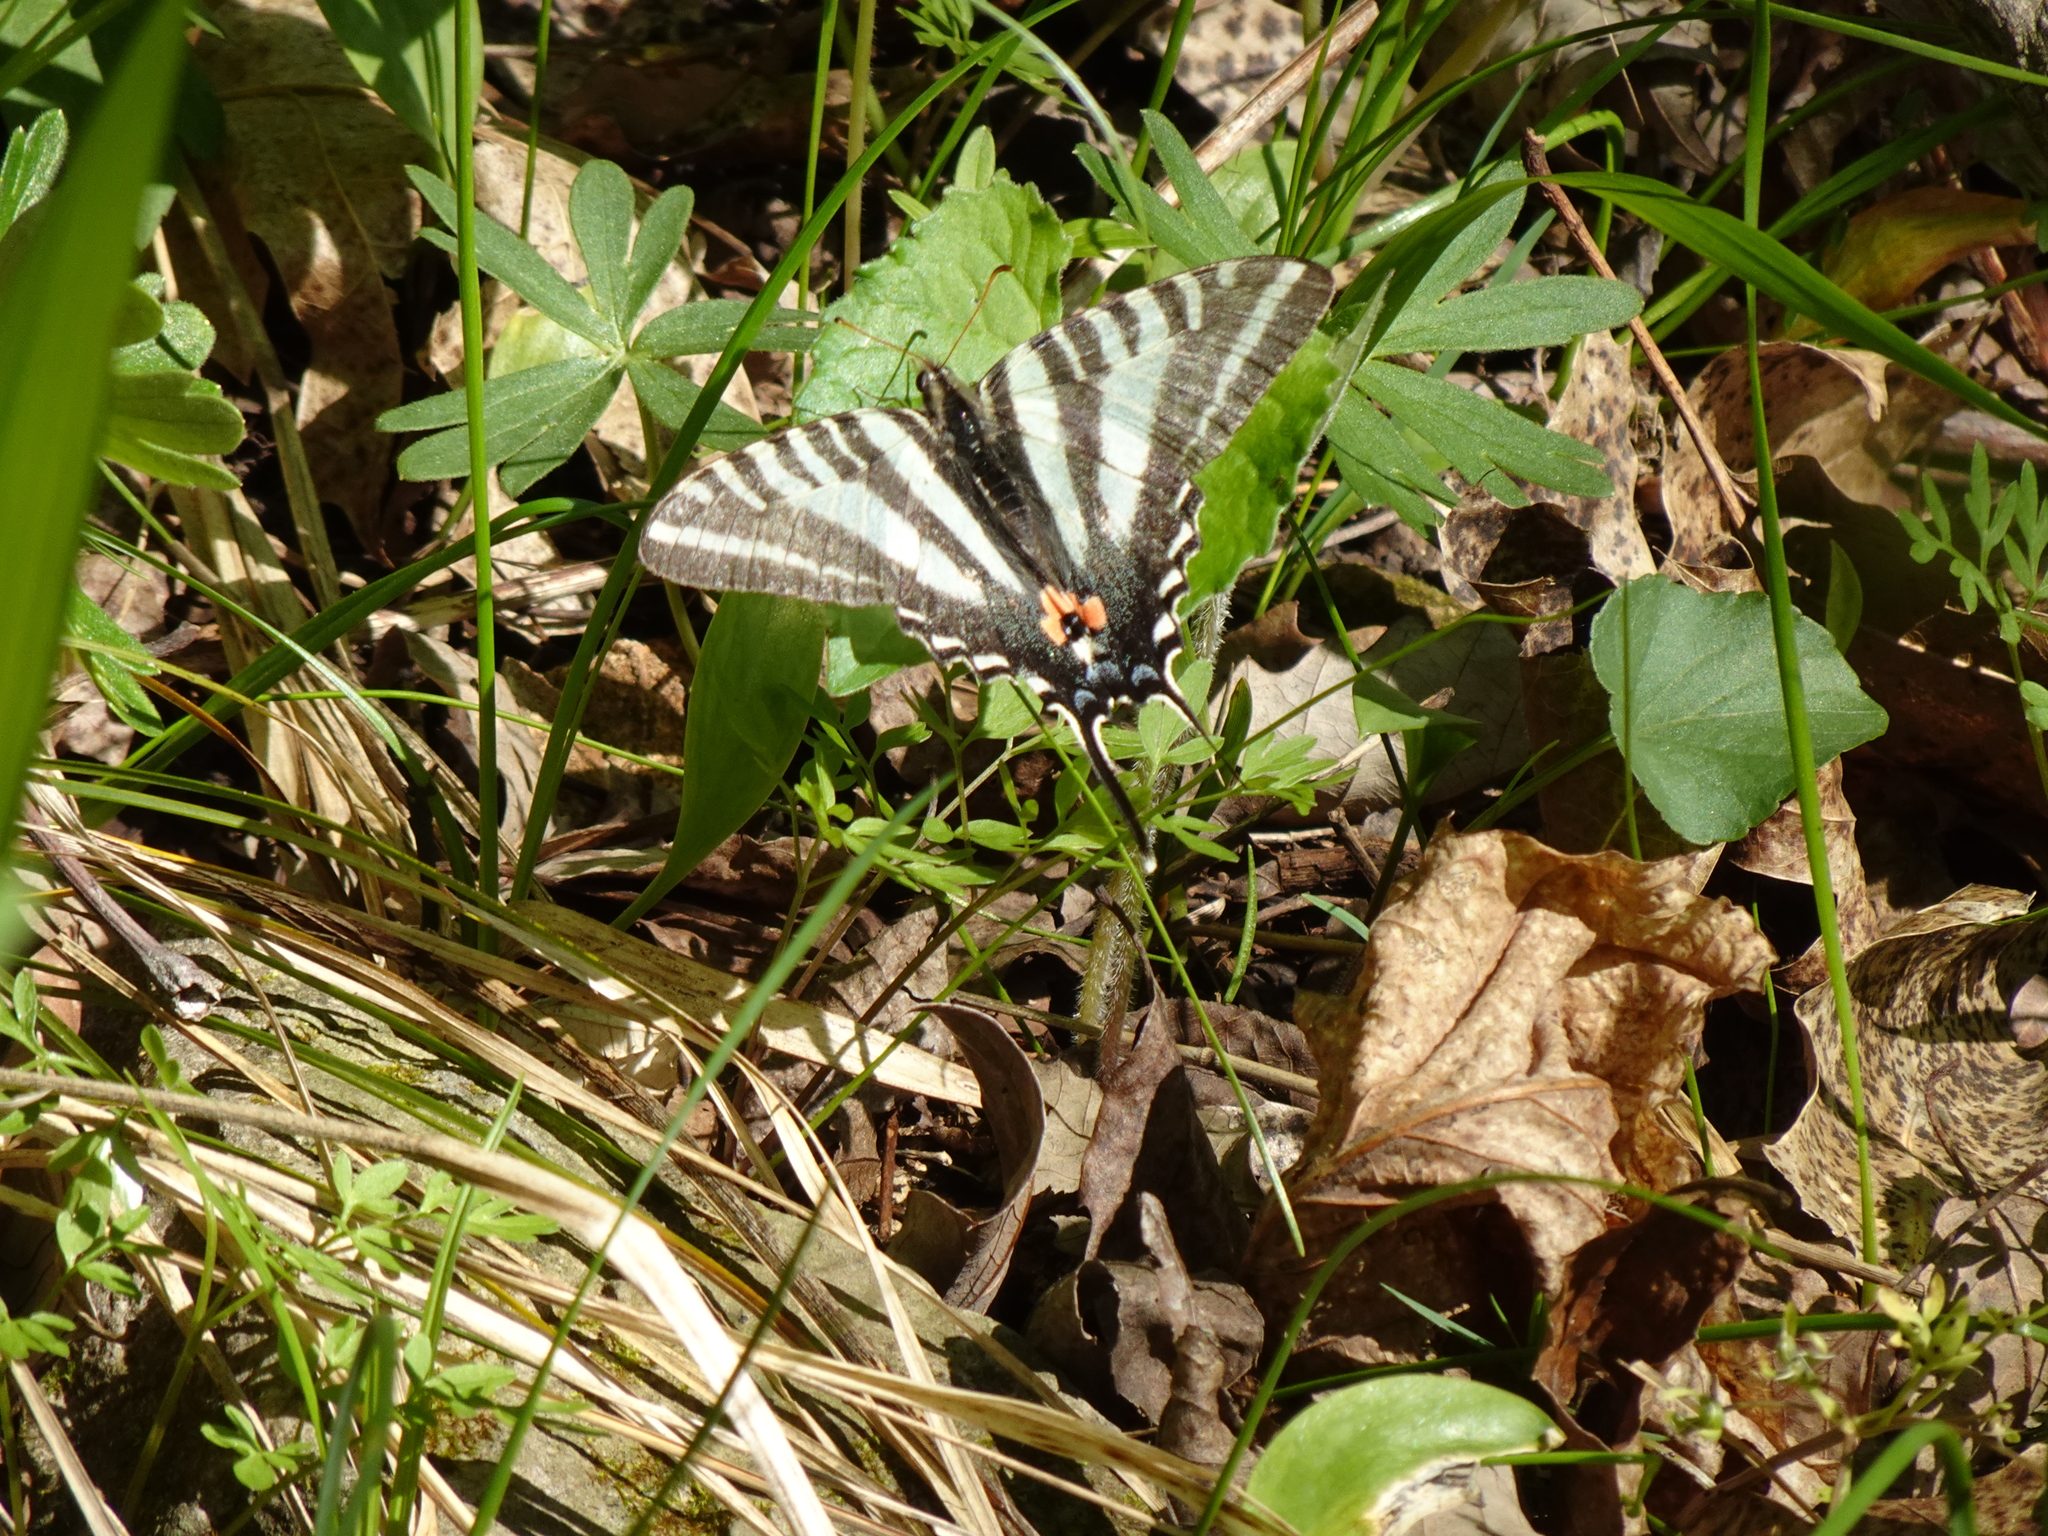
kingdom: Animalia
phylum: Arthropoda
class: Insecta
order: Lepidoptera
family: Papilionidae
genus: Protographium
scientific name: Protographium marcellus
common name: Zebra swallowtail
